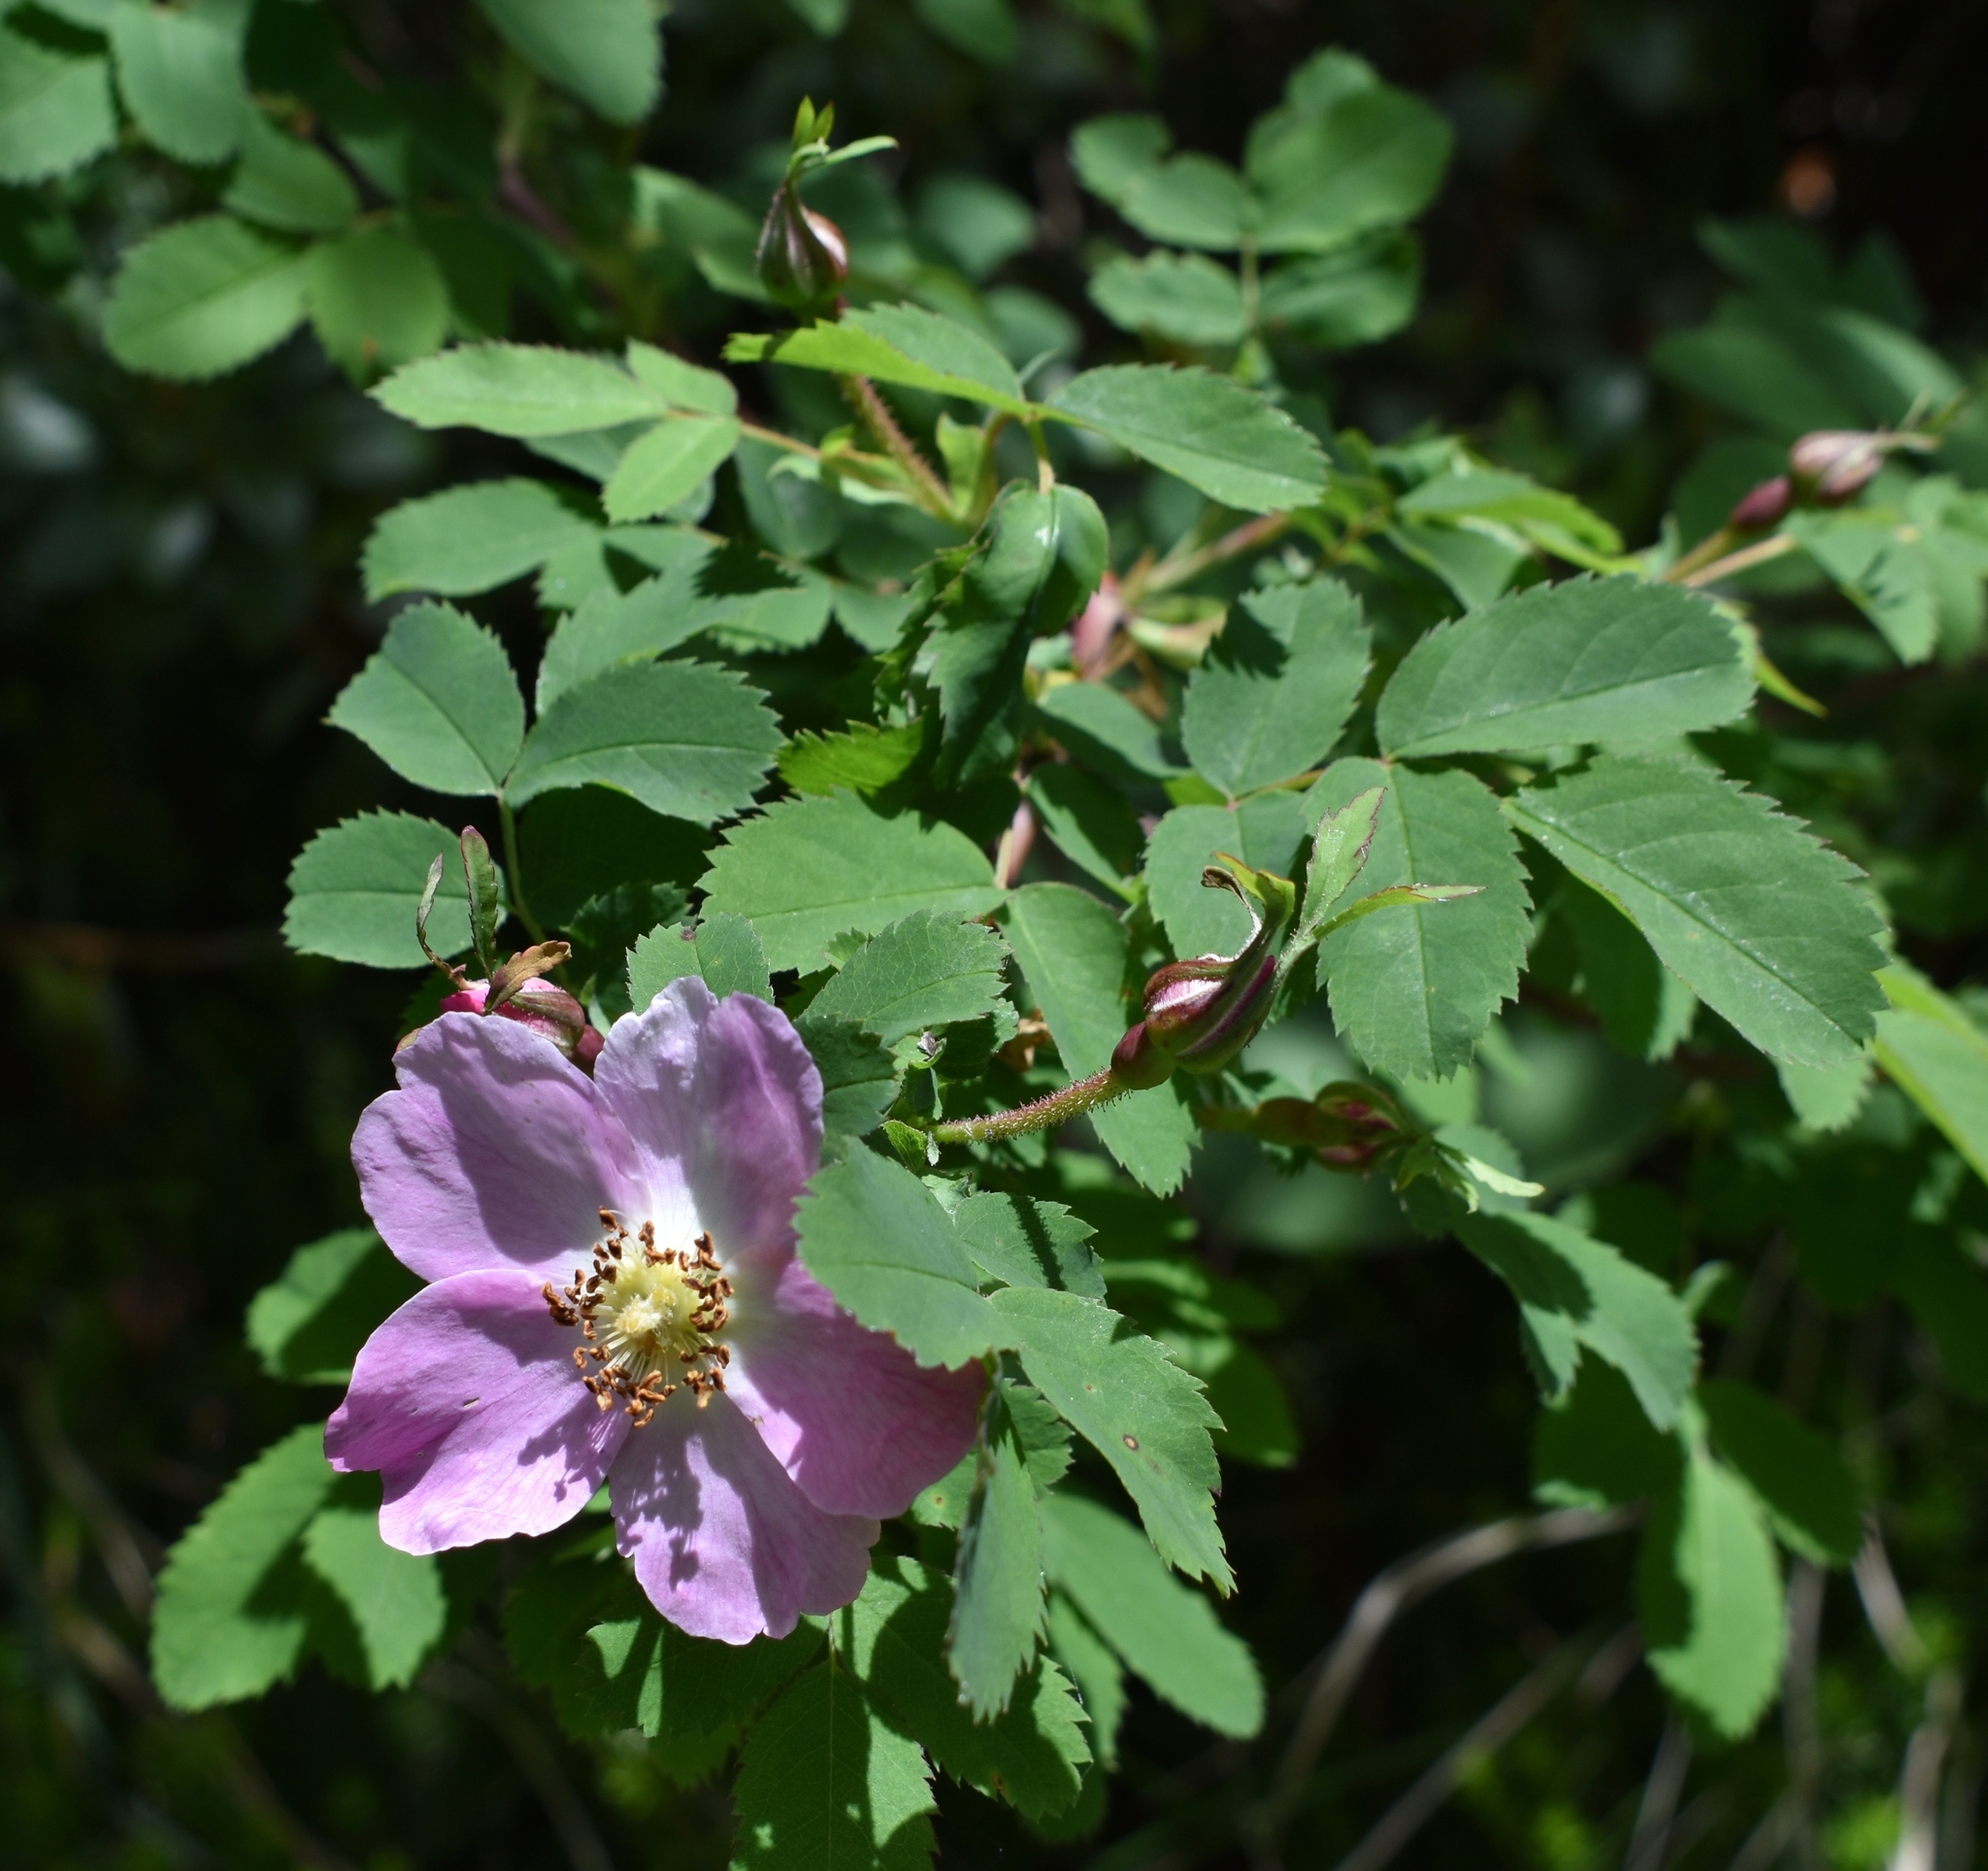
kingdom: Plantae
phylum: Tracheophyta
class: Magnoliopsida
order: Rosales
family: Rosaceae
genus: Rosa
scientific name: Rosa pendulina
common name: Alpine rose
